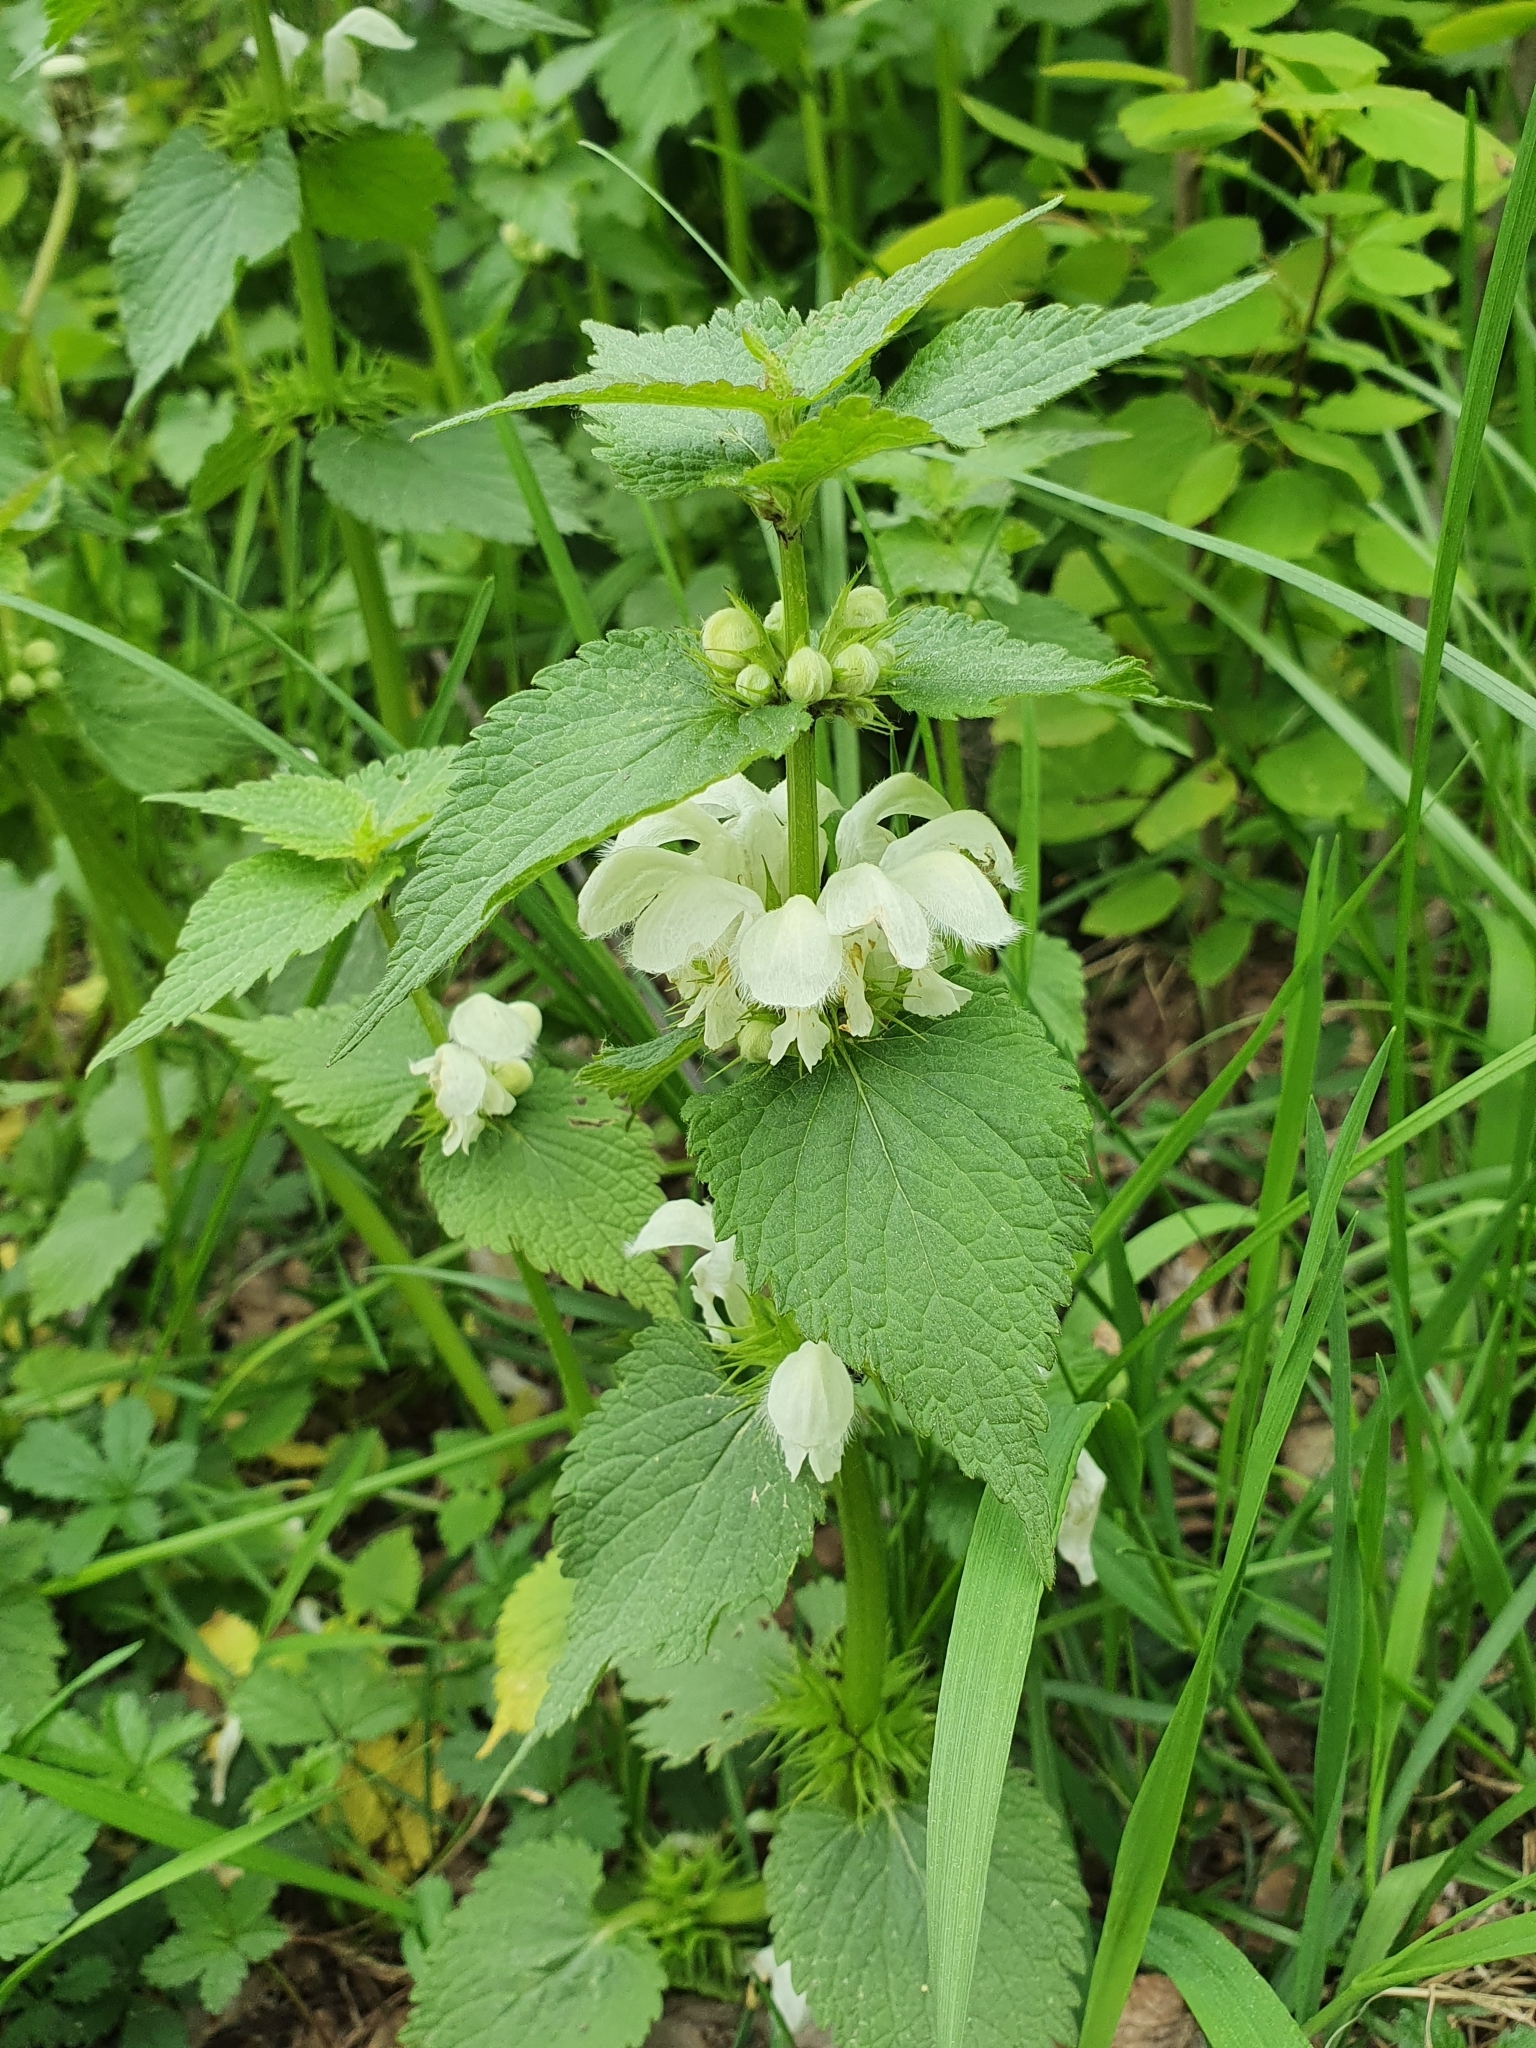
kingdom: Plantae
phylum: Tracheophyta
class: Magnoliopsida
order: Lamiales
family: Lamiaceae
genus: Lamium
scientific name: Lamium album
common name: White dead-nettle
